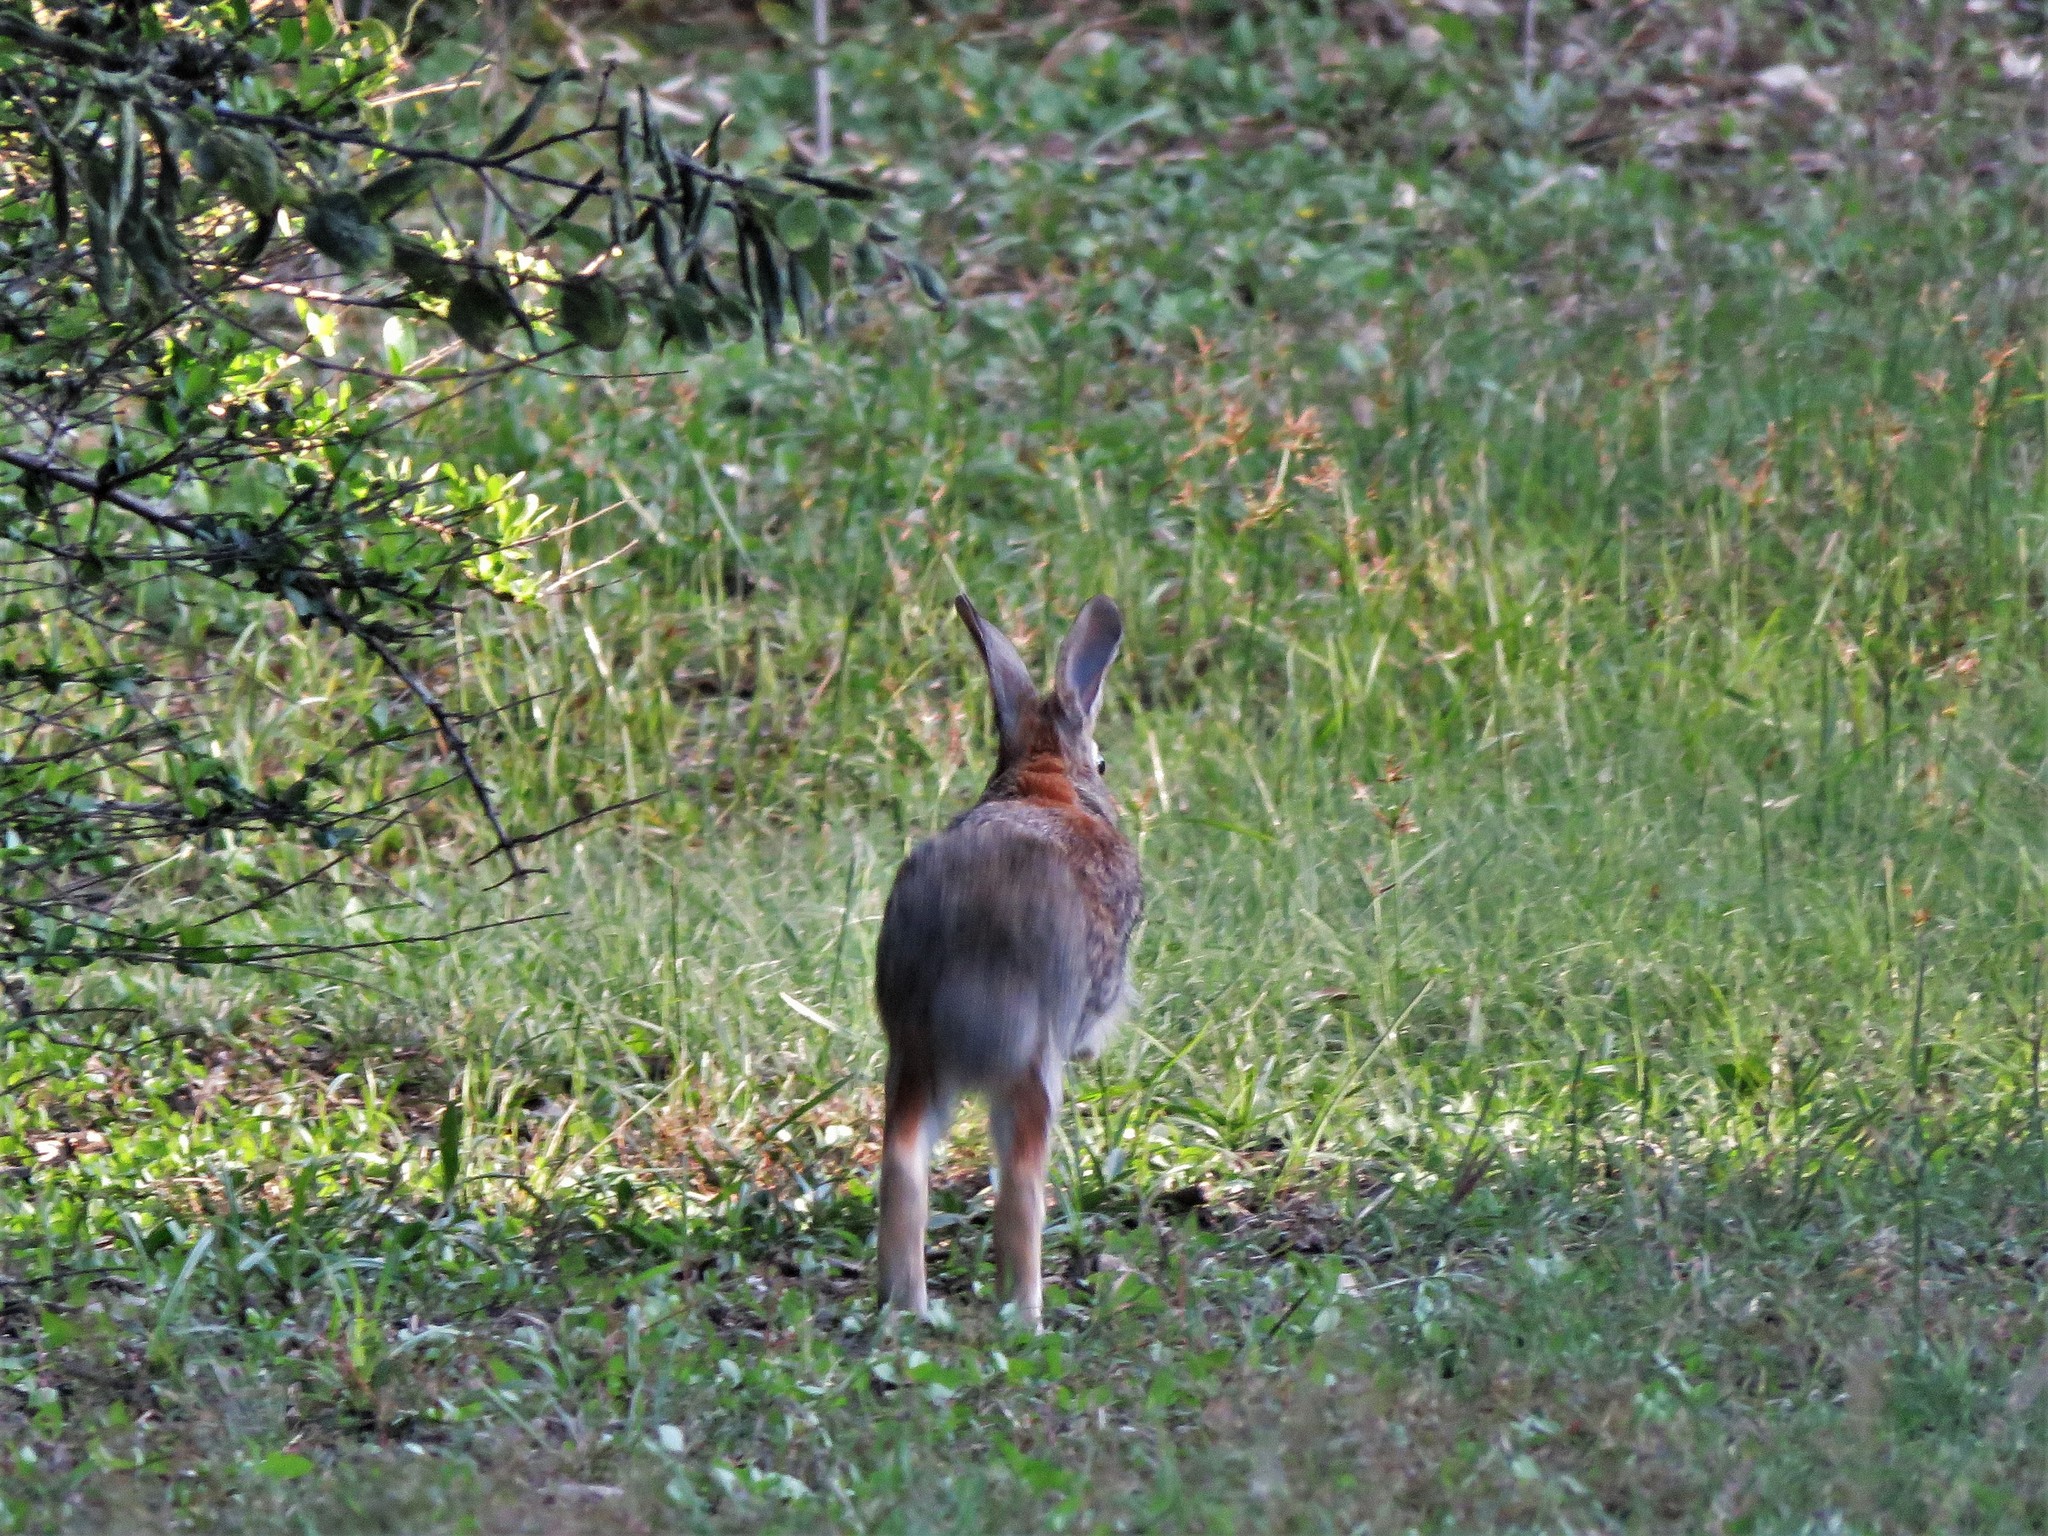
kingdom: Animalia
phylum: Chordata
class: Mammalia
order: Lagomorpha
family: Leporidae
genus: Sylvilagus
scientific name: Sylvilagus floridanus
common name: Eastern cottontail
